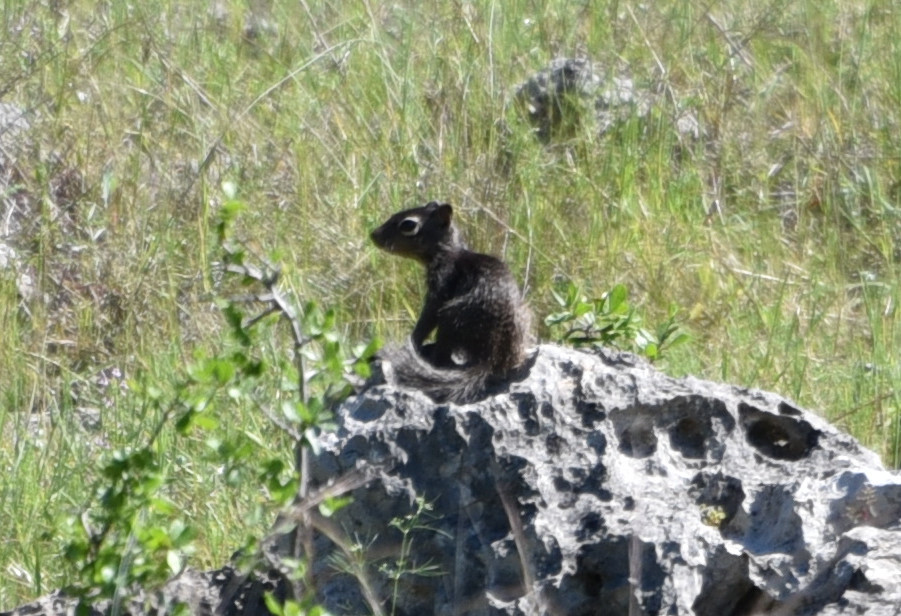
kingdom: Animalia
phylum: Chordata
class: Mammalia
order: Rodentia
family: Sciuridae
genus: Otospermophilus
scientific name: Otospermophilus variegatus
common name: Rock squirrel
